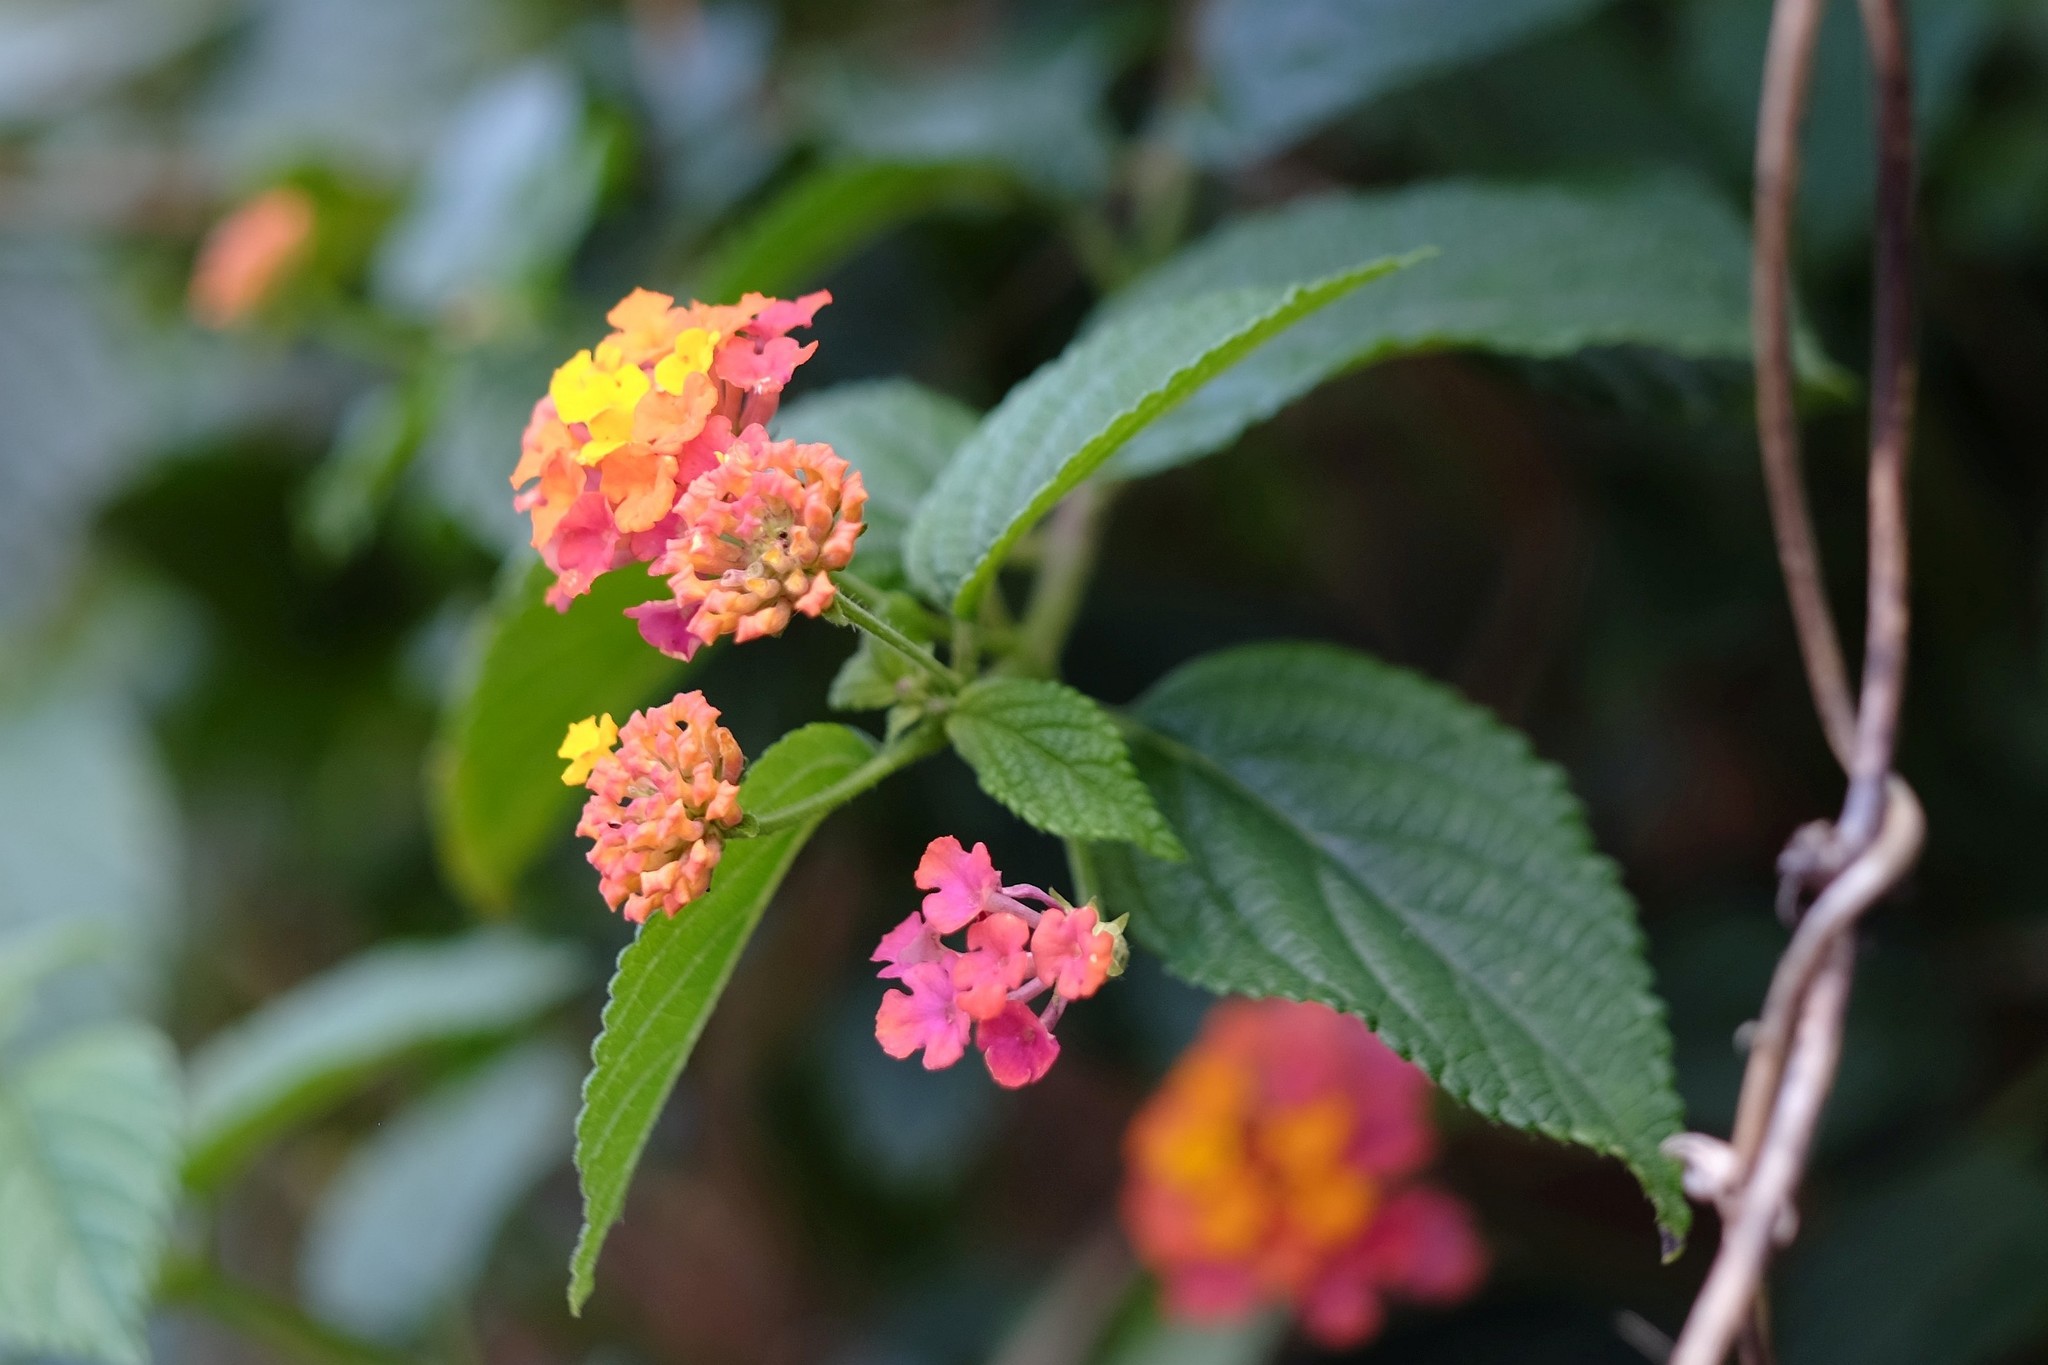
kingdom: Plantae
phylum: Tracheophyta
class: Magnoliopsida
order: Lamiales
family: Verbenaceae
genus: Lantana
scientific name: Lantana camara
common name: Lantana
